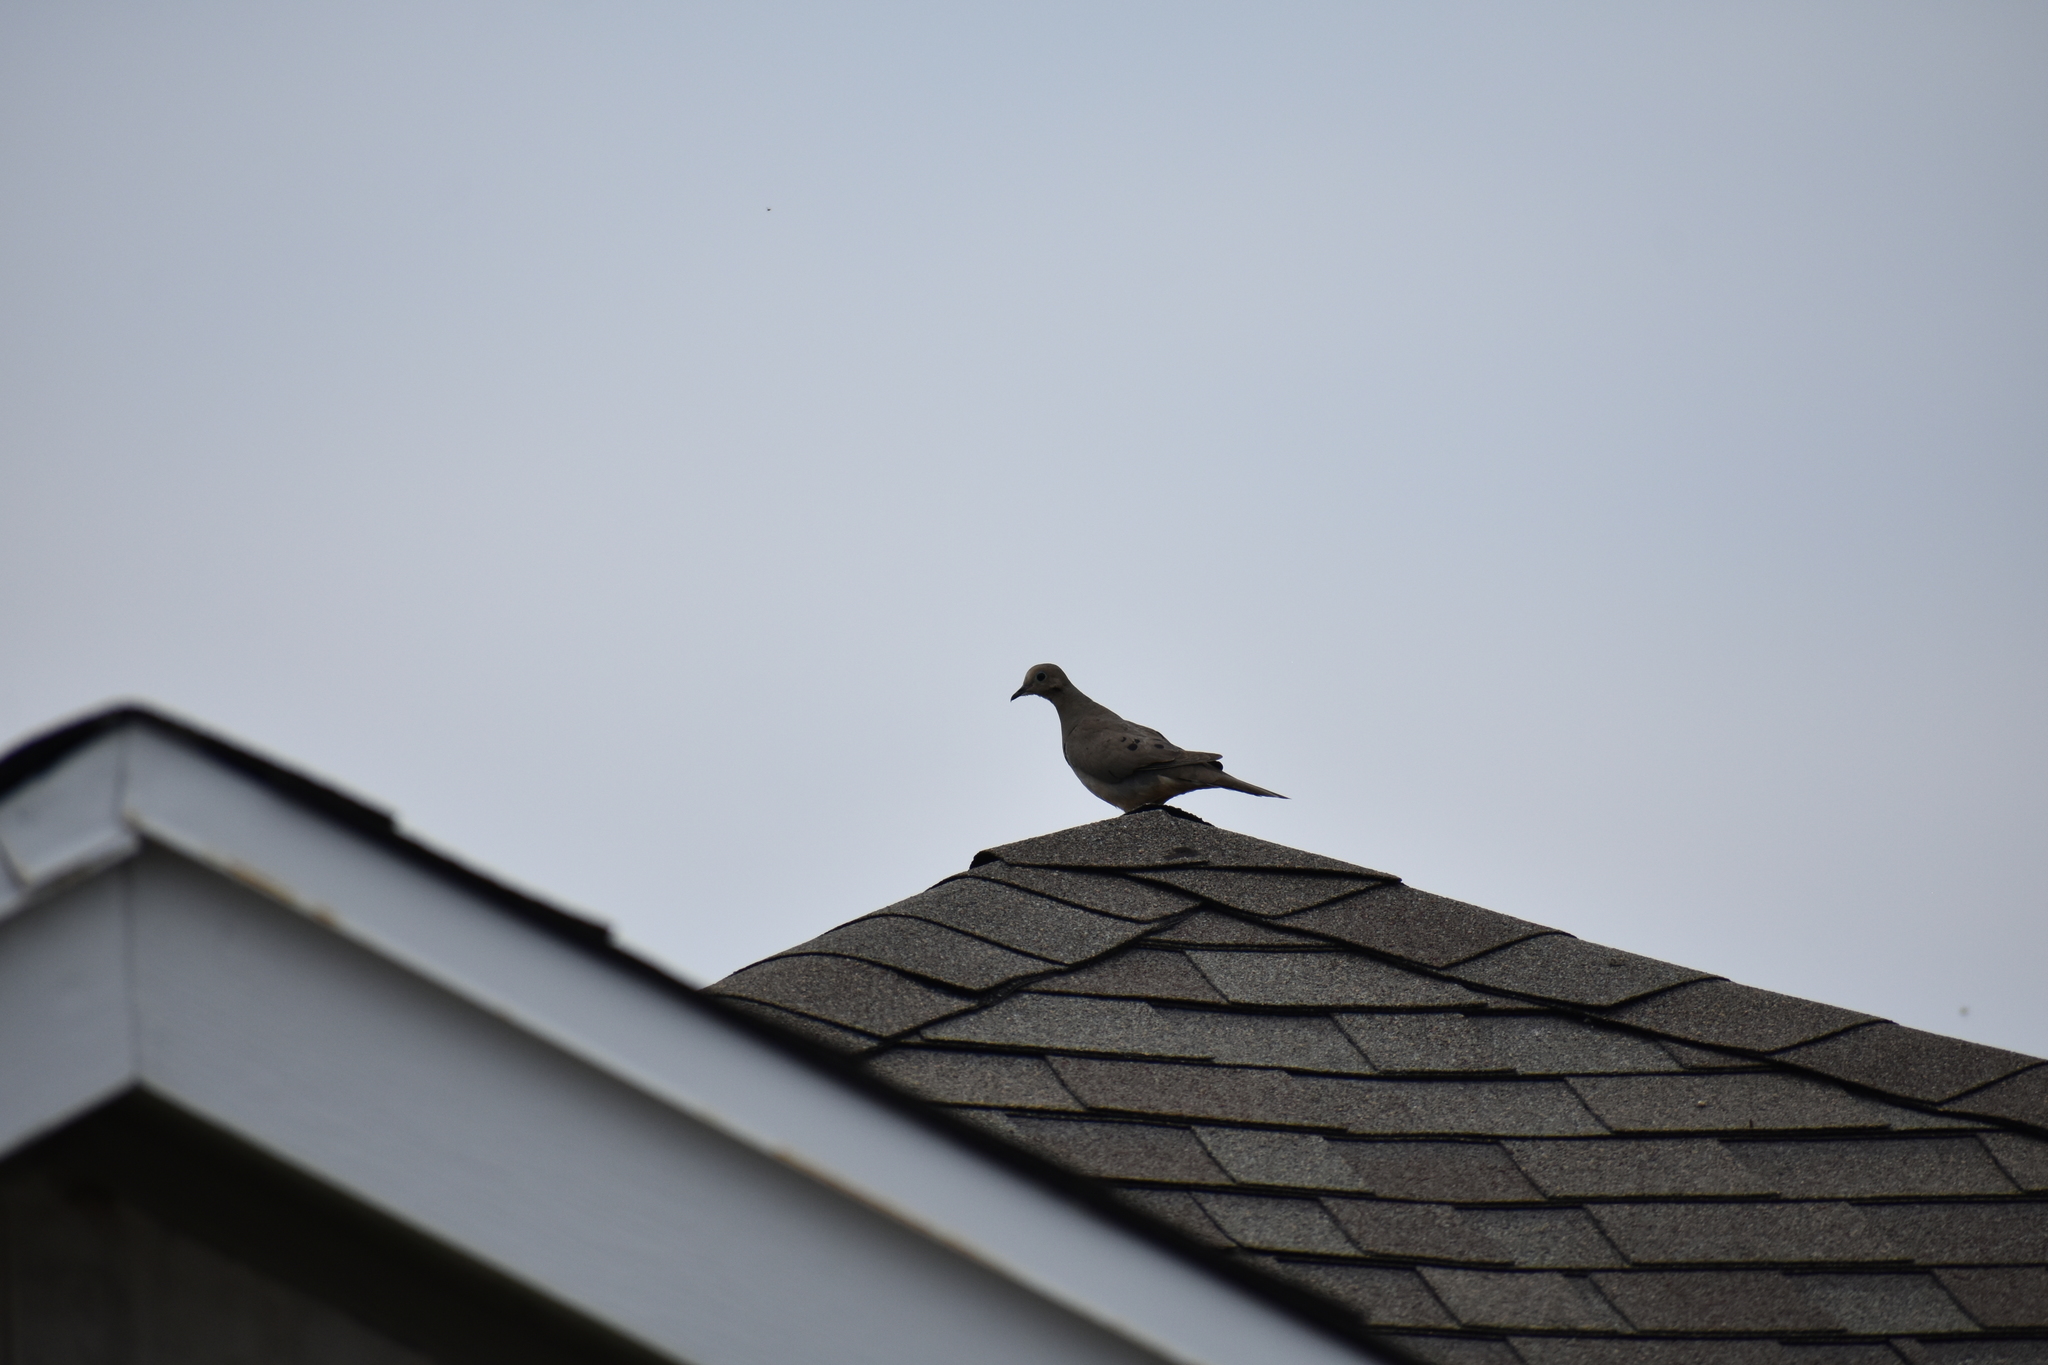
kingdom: Animalia
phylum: Chordata
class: Aves
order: Columbiformes
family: Columbidae
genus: Zenaida
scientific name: Zenaida macroura
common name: Mourning dove
